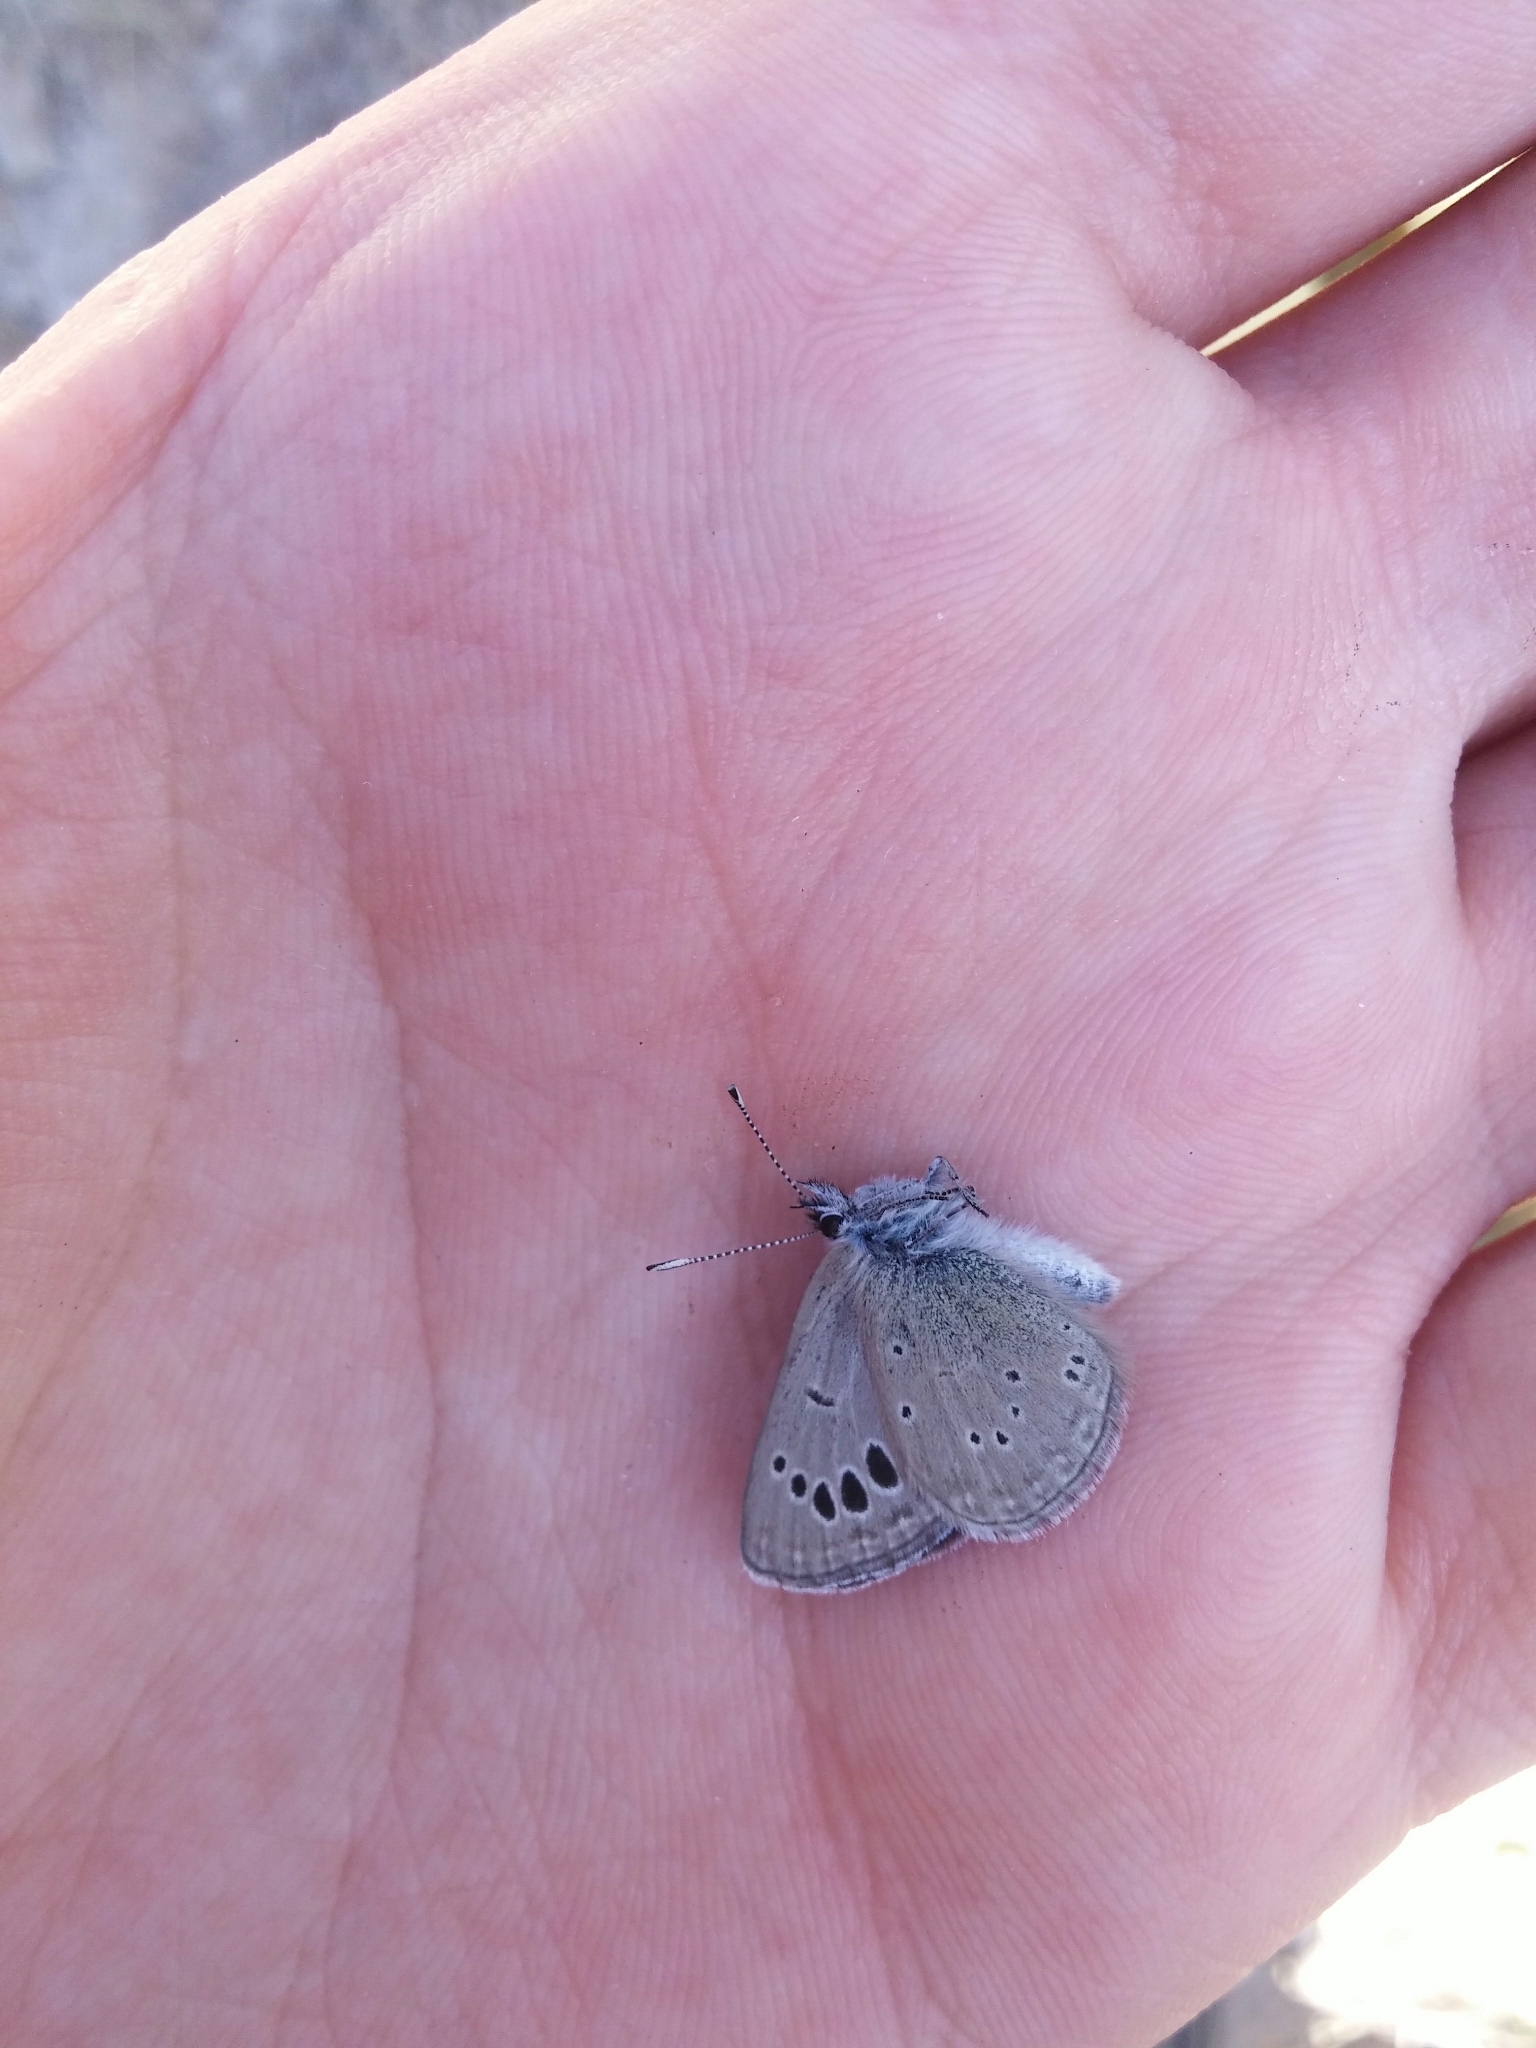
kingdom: Animalia
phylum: Arthropoda
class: Insecta
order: Lepidoptera
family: Lycaenidae
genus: Glaucopsyche
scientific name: Glaucopsyche melanops
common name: Black-eyed blue
